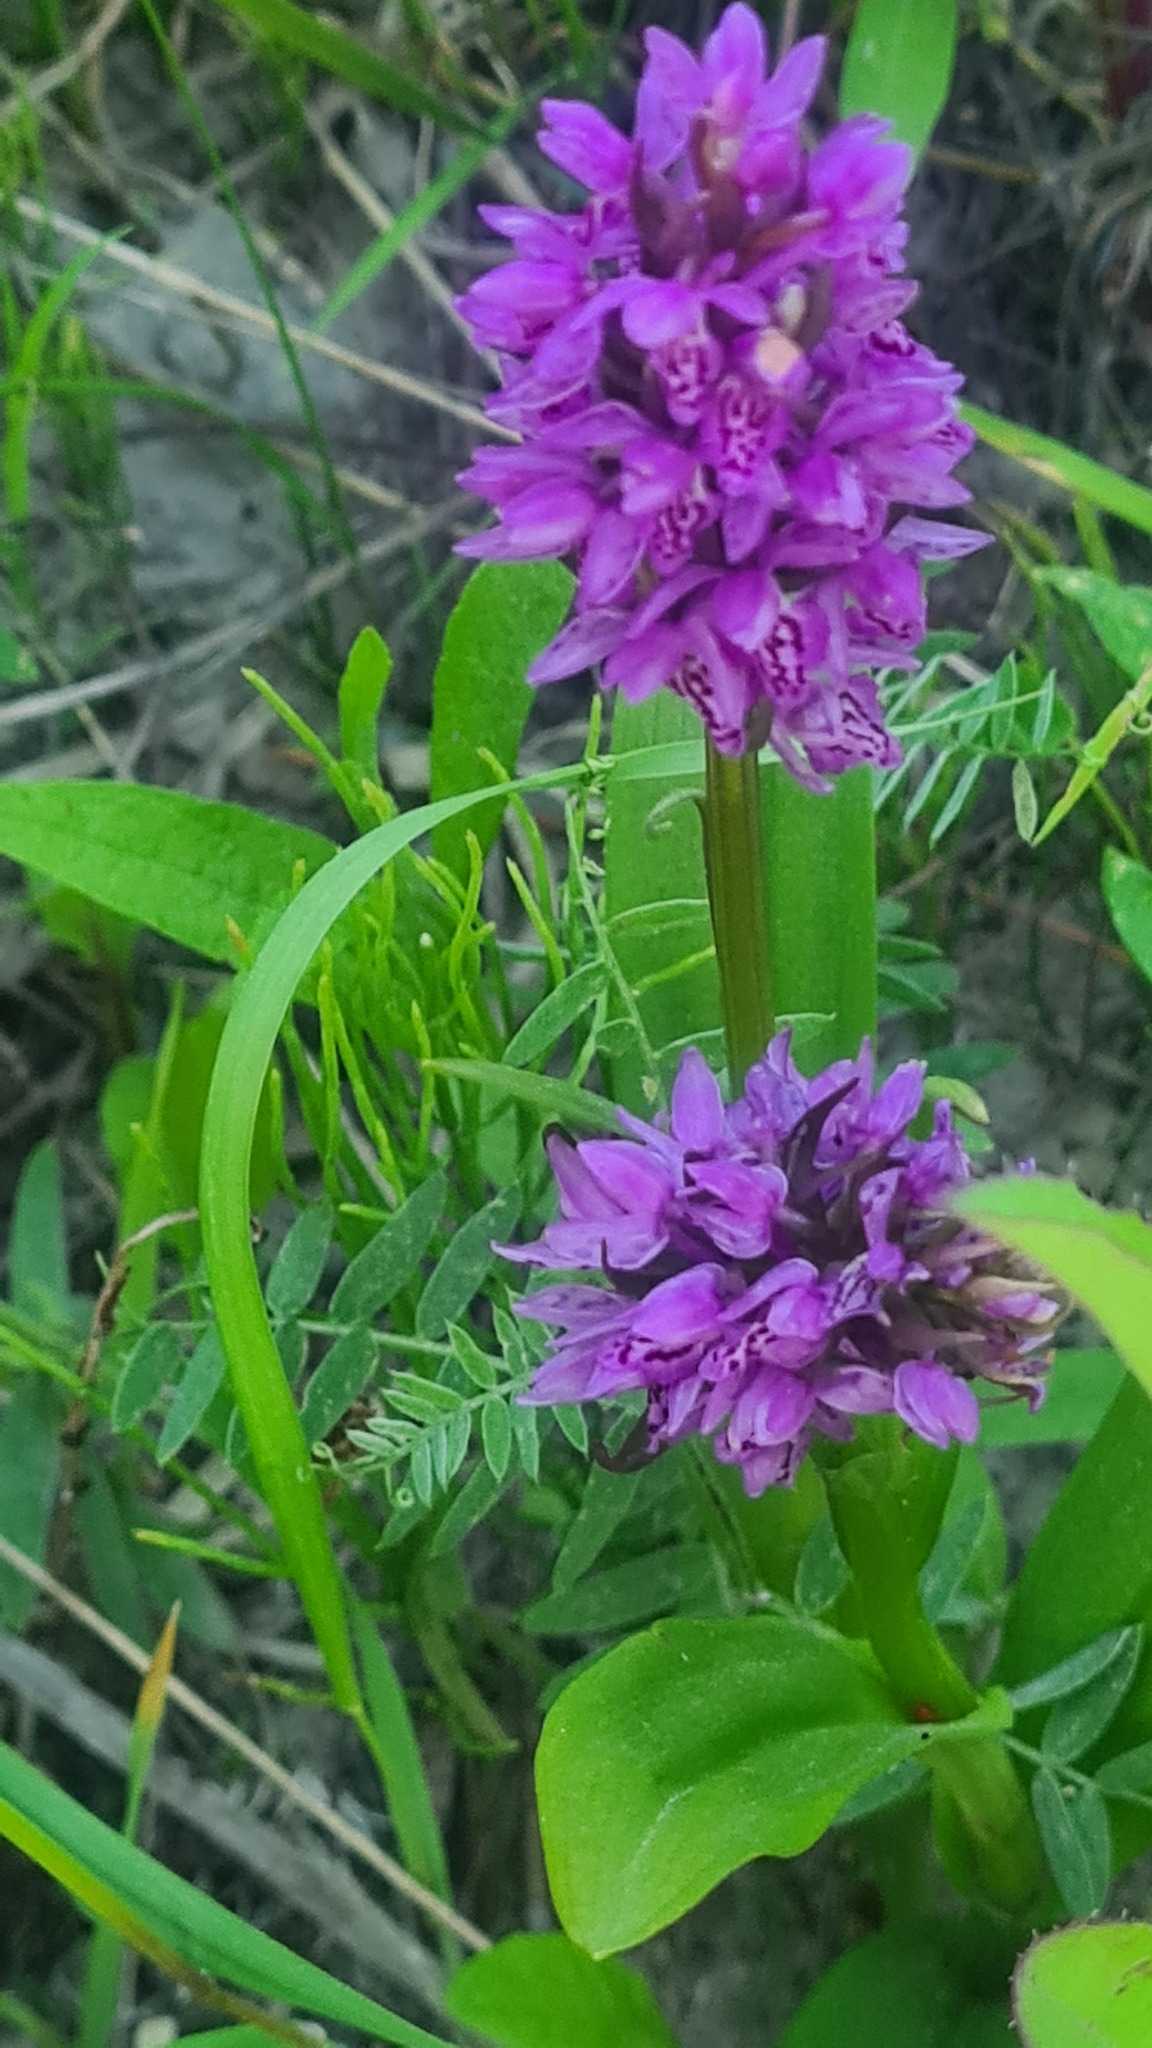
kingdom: Plantae
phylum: Tracheophyta
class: Liliopsida
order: Asparagales
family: Orchidaceae
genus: Dactylorhiza
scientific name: Dactylorhiza incarnata
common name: Early marsh-orchid
